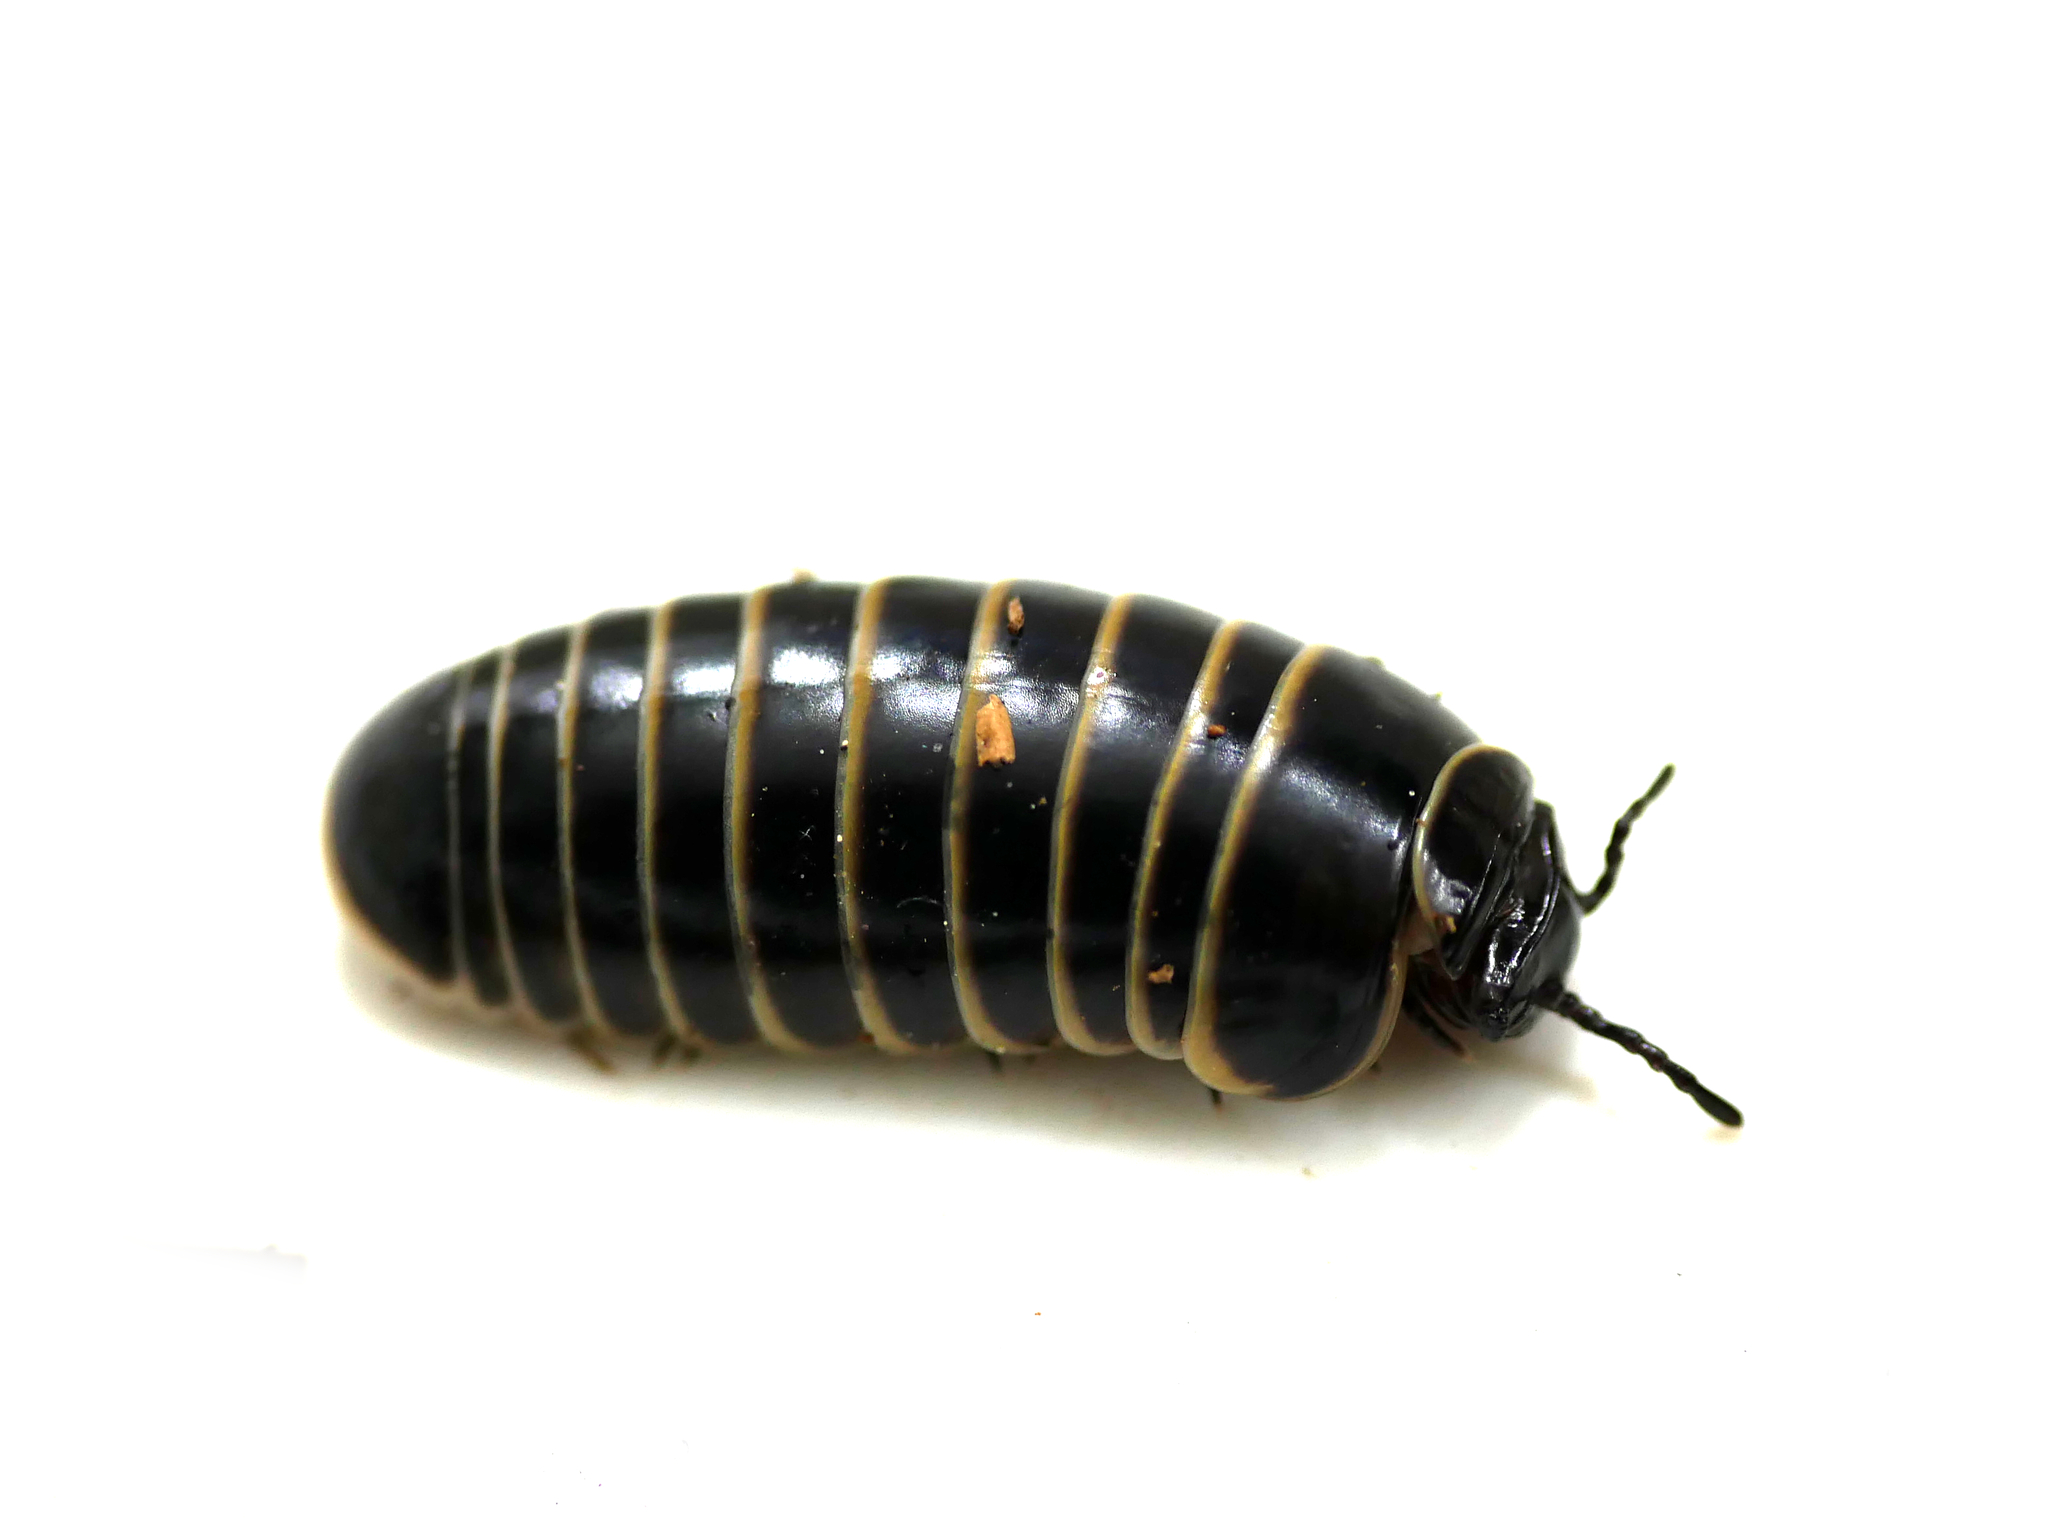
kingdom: Animalia
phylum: Arthropoda
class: Diplopoda
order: Glomerida
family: Glomeridae
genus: Glomeris
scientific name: Glomeris marginata
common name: Bordered pill millipede
